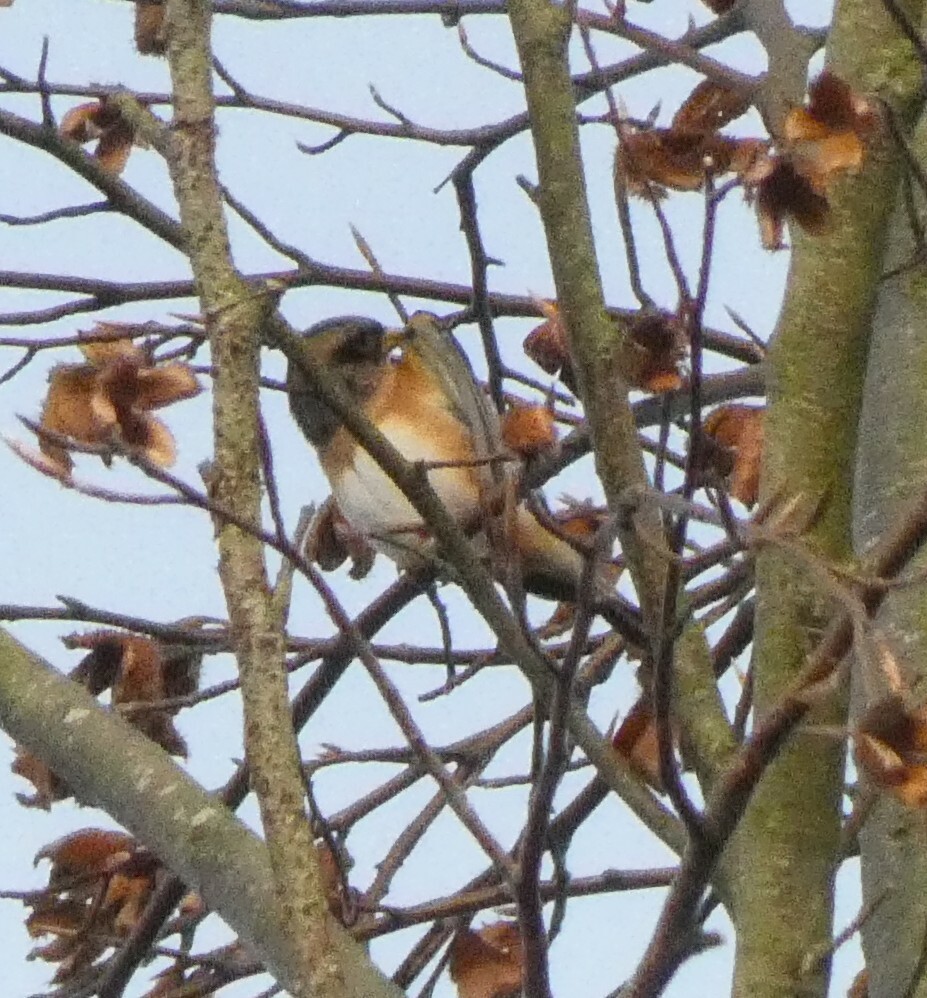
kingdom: Animalia
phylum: Chordata
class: Aves
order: Passeriformes
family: Fringillidae
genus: Fringilla
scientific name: Fringilla montifringilla
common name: Brambling
